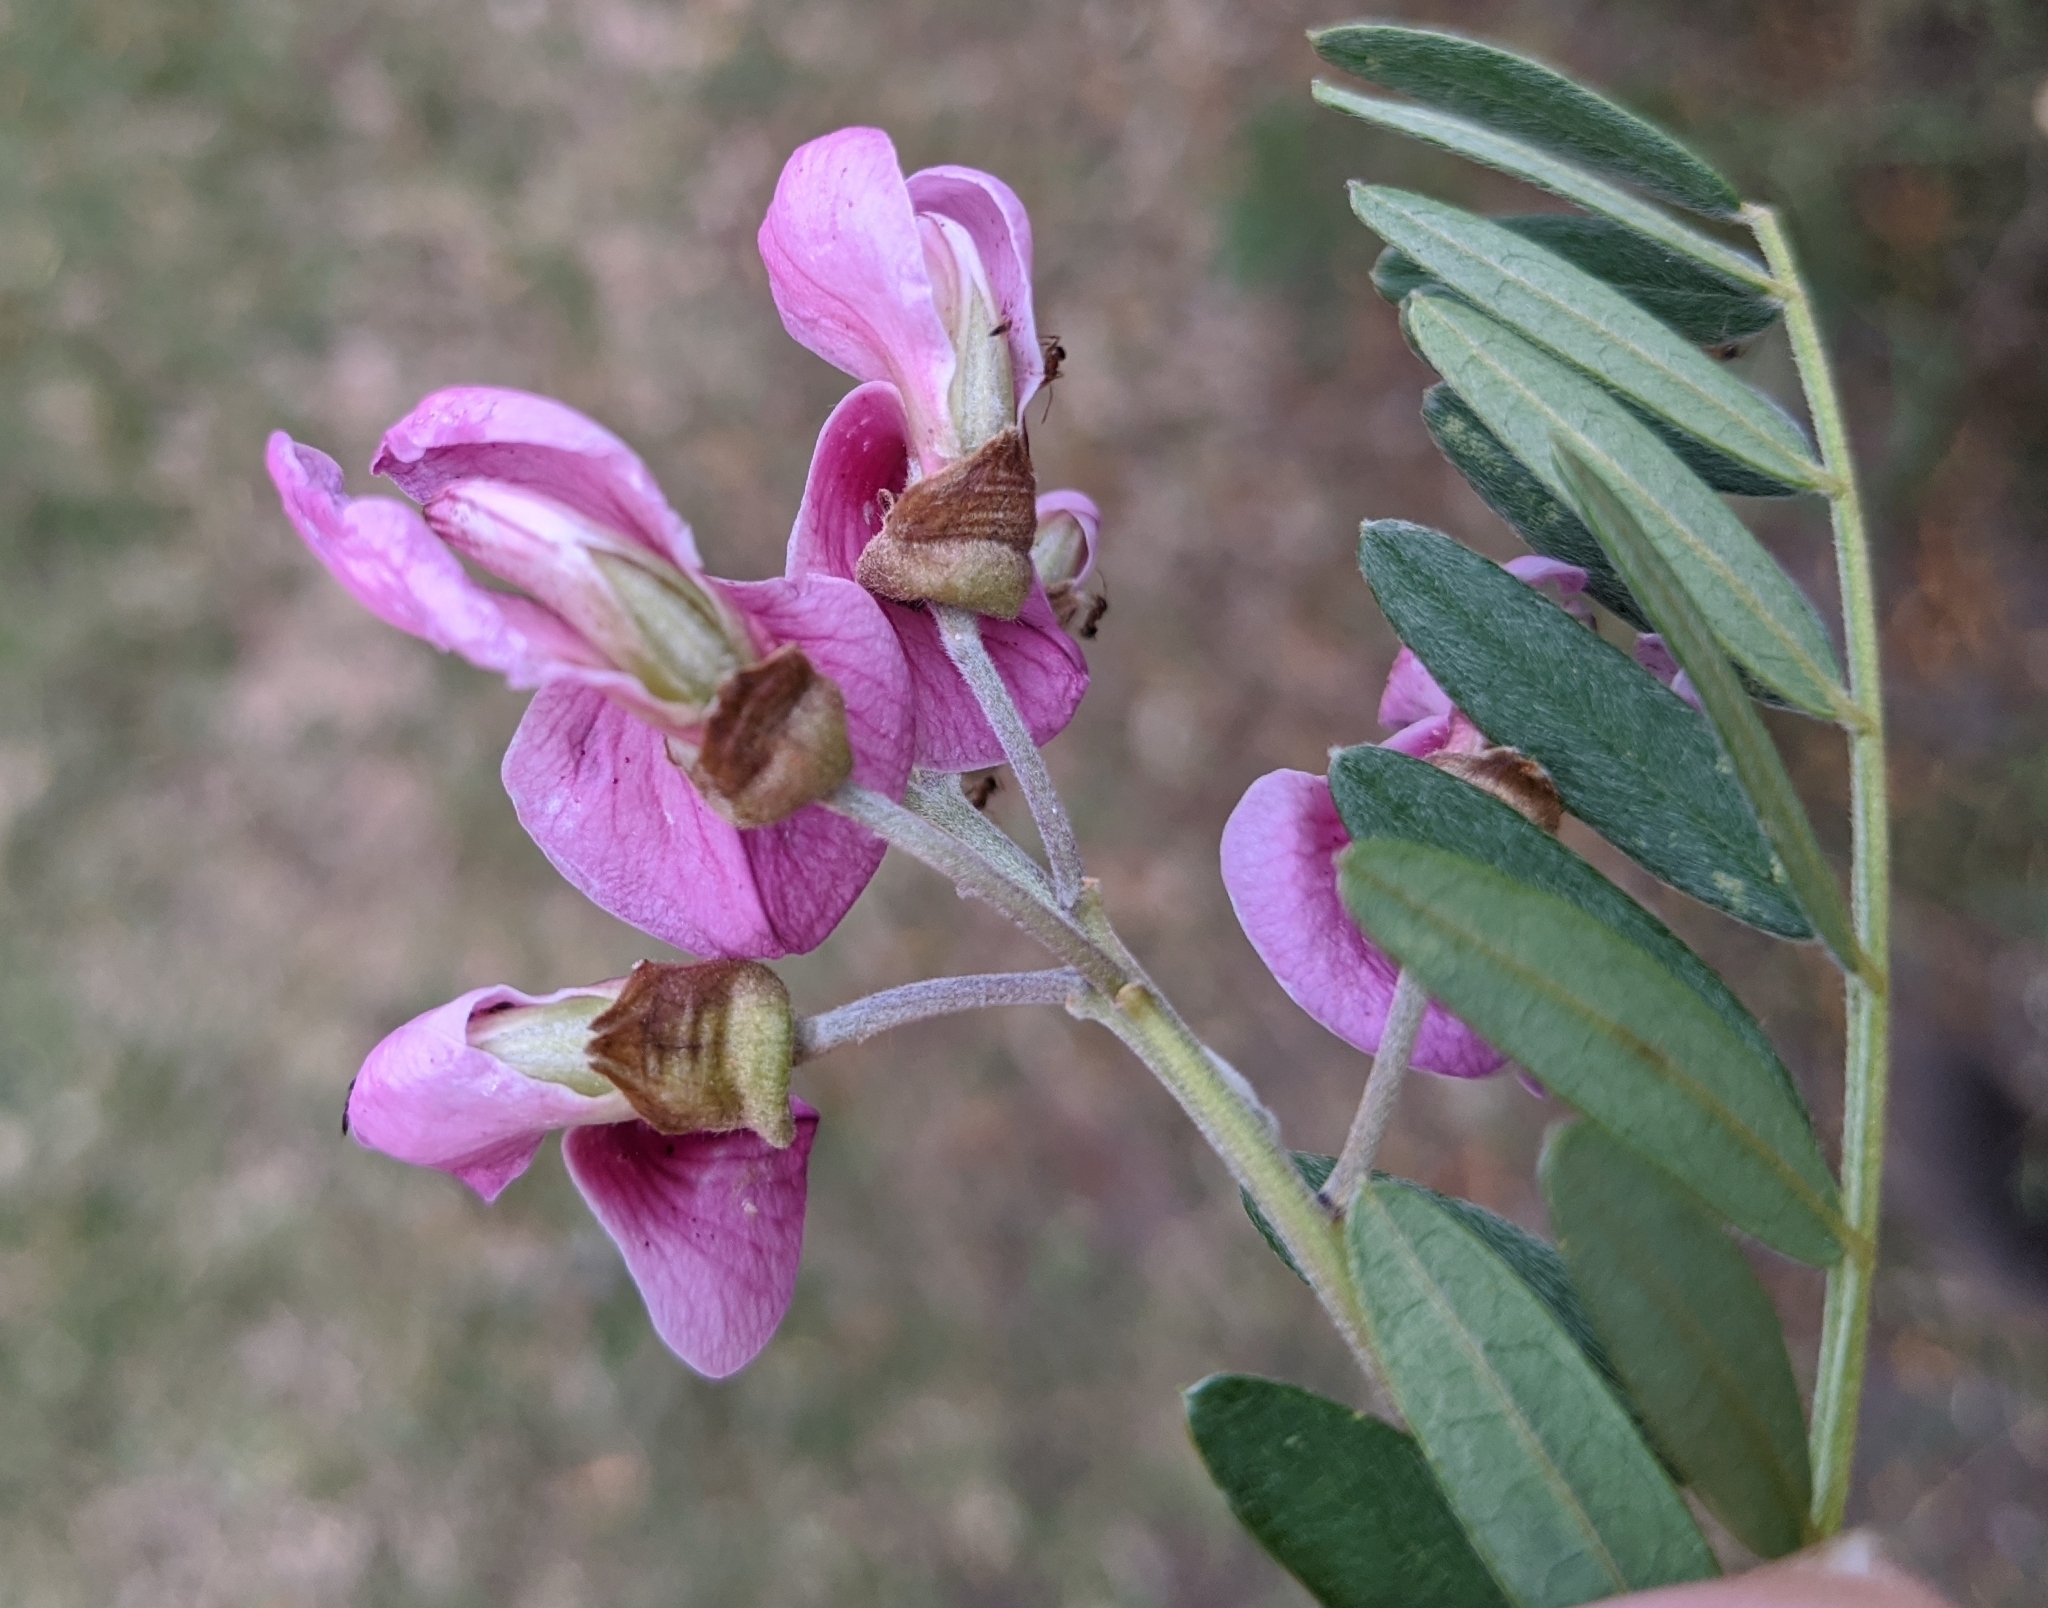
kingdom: Plantae
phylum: Tracheophyta
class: Magnoliopsida
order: Fabales
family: Fabaceae
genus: Virgilia
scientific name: Virgilia oroboides
